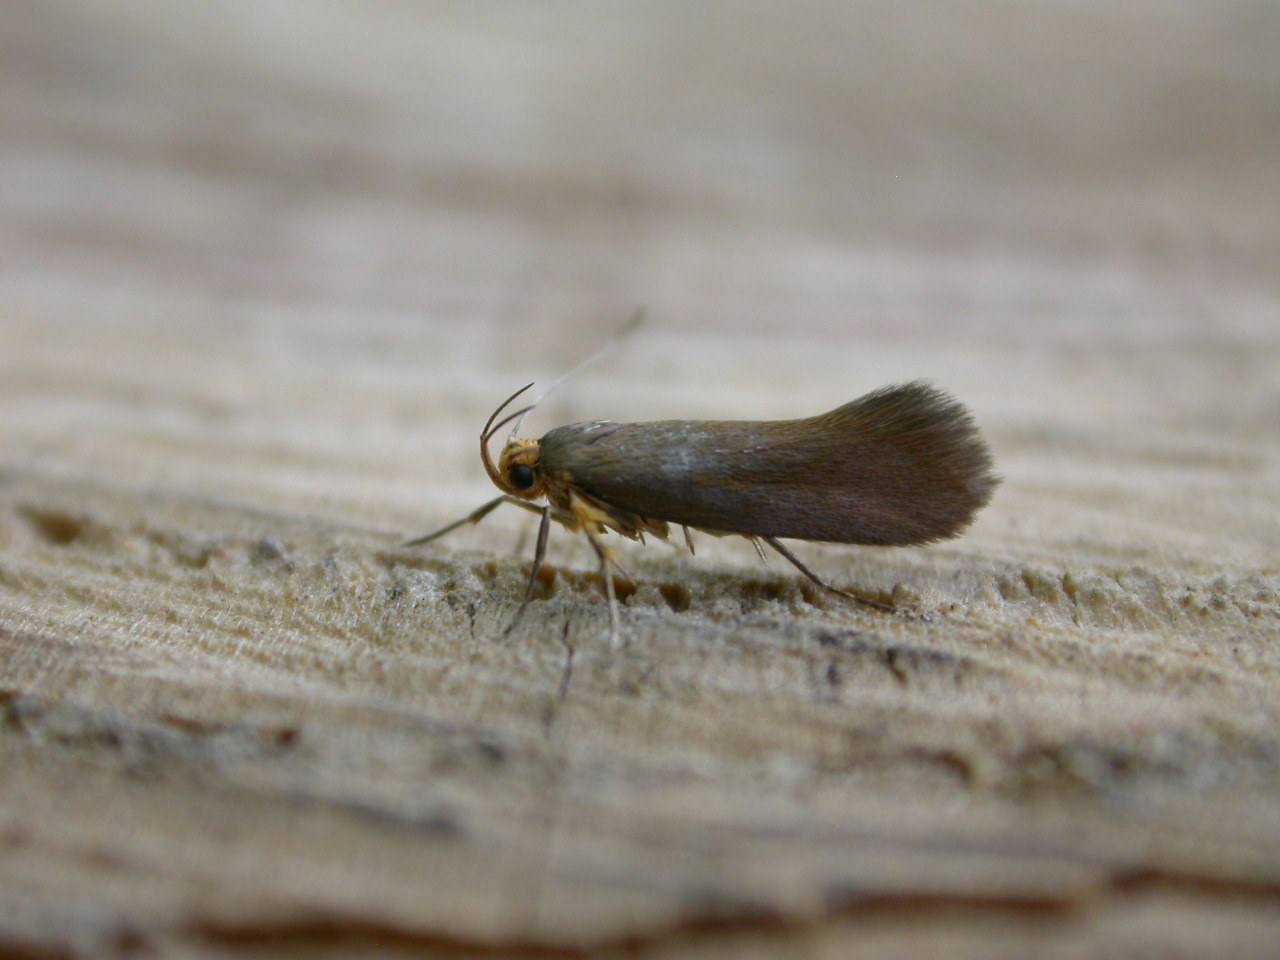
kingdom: Animalia
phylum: Arthropoda
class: Insecta
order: Lepidoptera
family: Oecophoridae
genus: Borkhausenia
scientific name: Borkhausenia Crassa unitella
